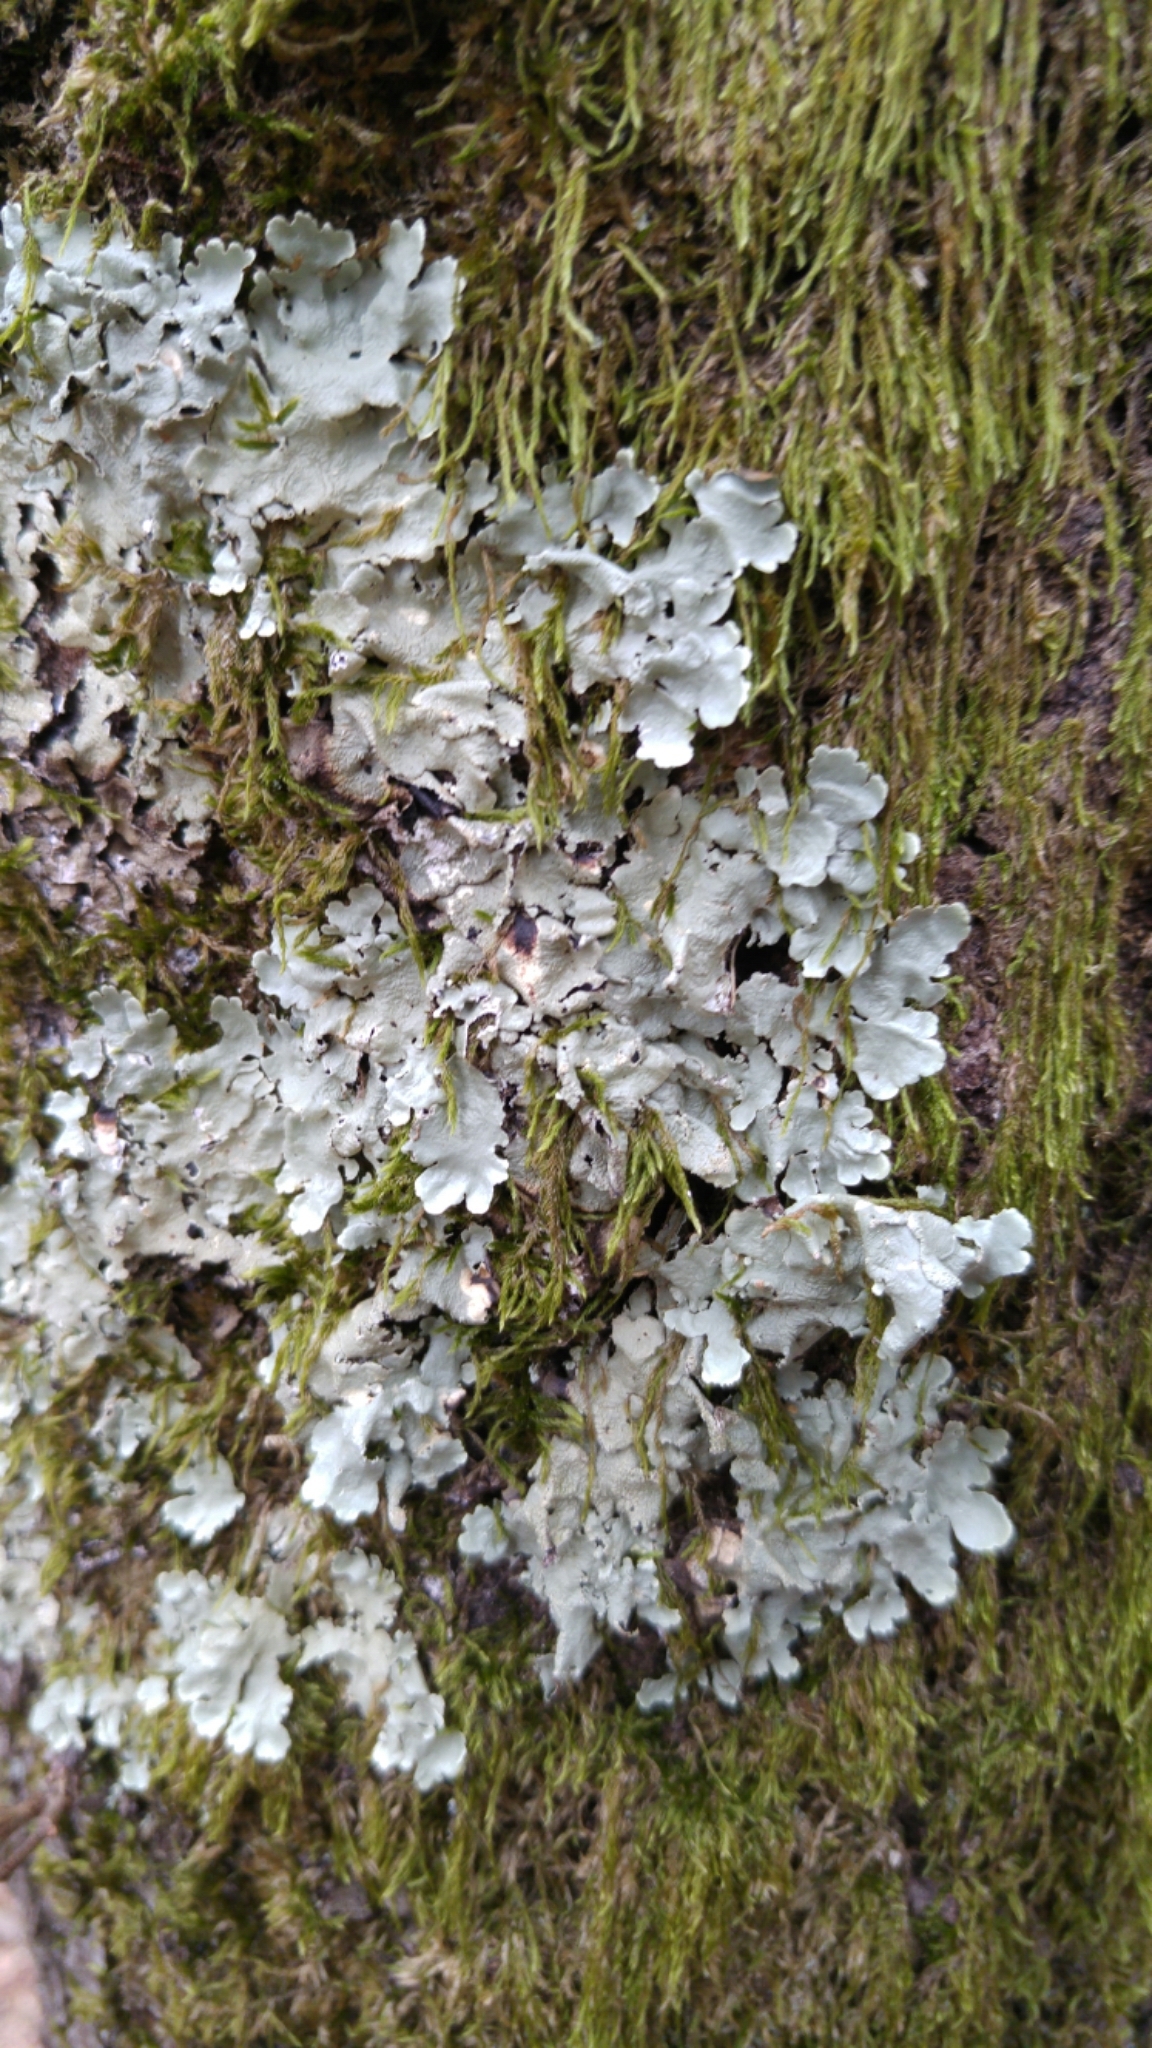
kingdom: Fungi
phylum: Ascomycota
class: Lecanoromycetes
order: Lecanorales
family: Parmeliaceae
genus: Flavoparmelia
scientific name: Flavoparmelia caperata
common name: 40-mile per hour lichen
